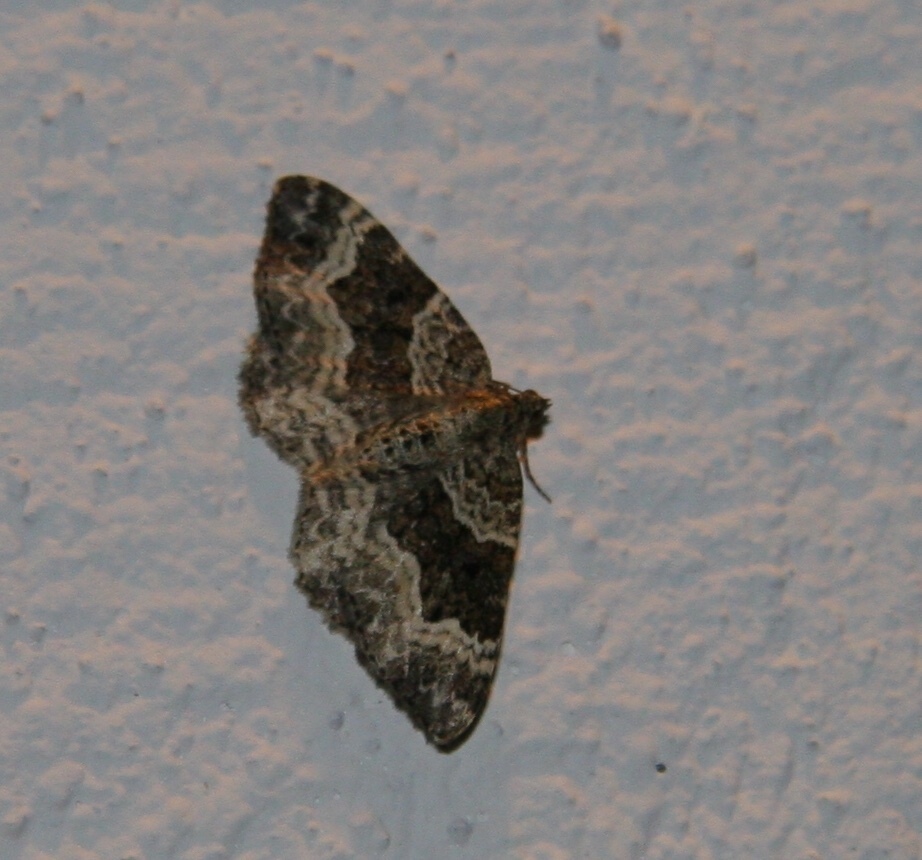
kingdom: Animalia
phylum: Arthropoda
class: Insecta
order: Lepidoptera
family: Geometridae
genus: Epirrhoe
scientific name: Epirrhoe alternata
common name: Common carpet
